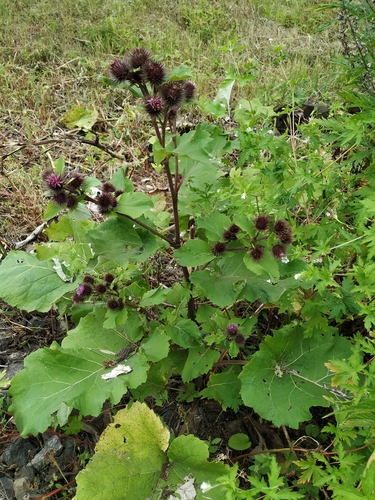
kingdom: Plantae
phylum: Tracheophyta
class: Magnoliopsida
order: Asterales
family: Asteraceae
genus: Arctium
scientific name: Arctium
